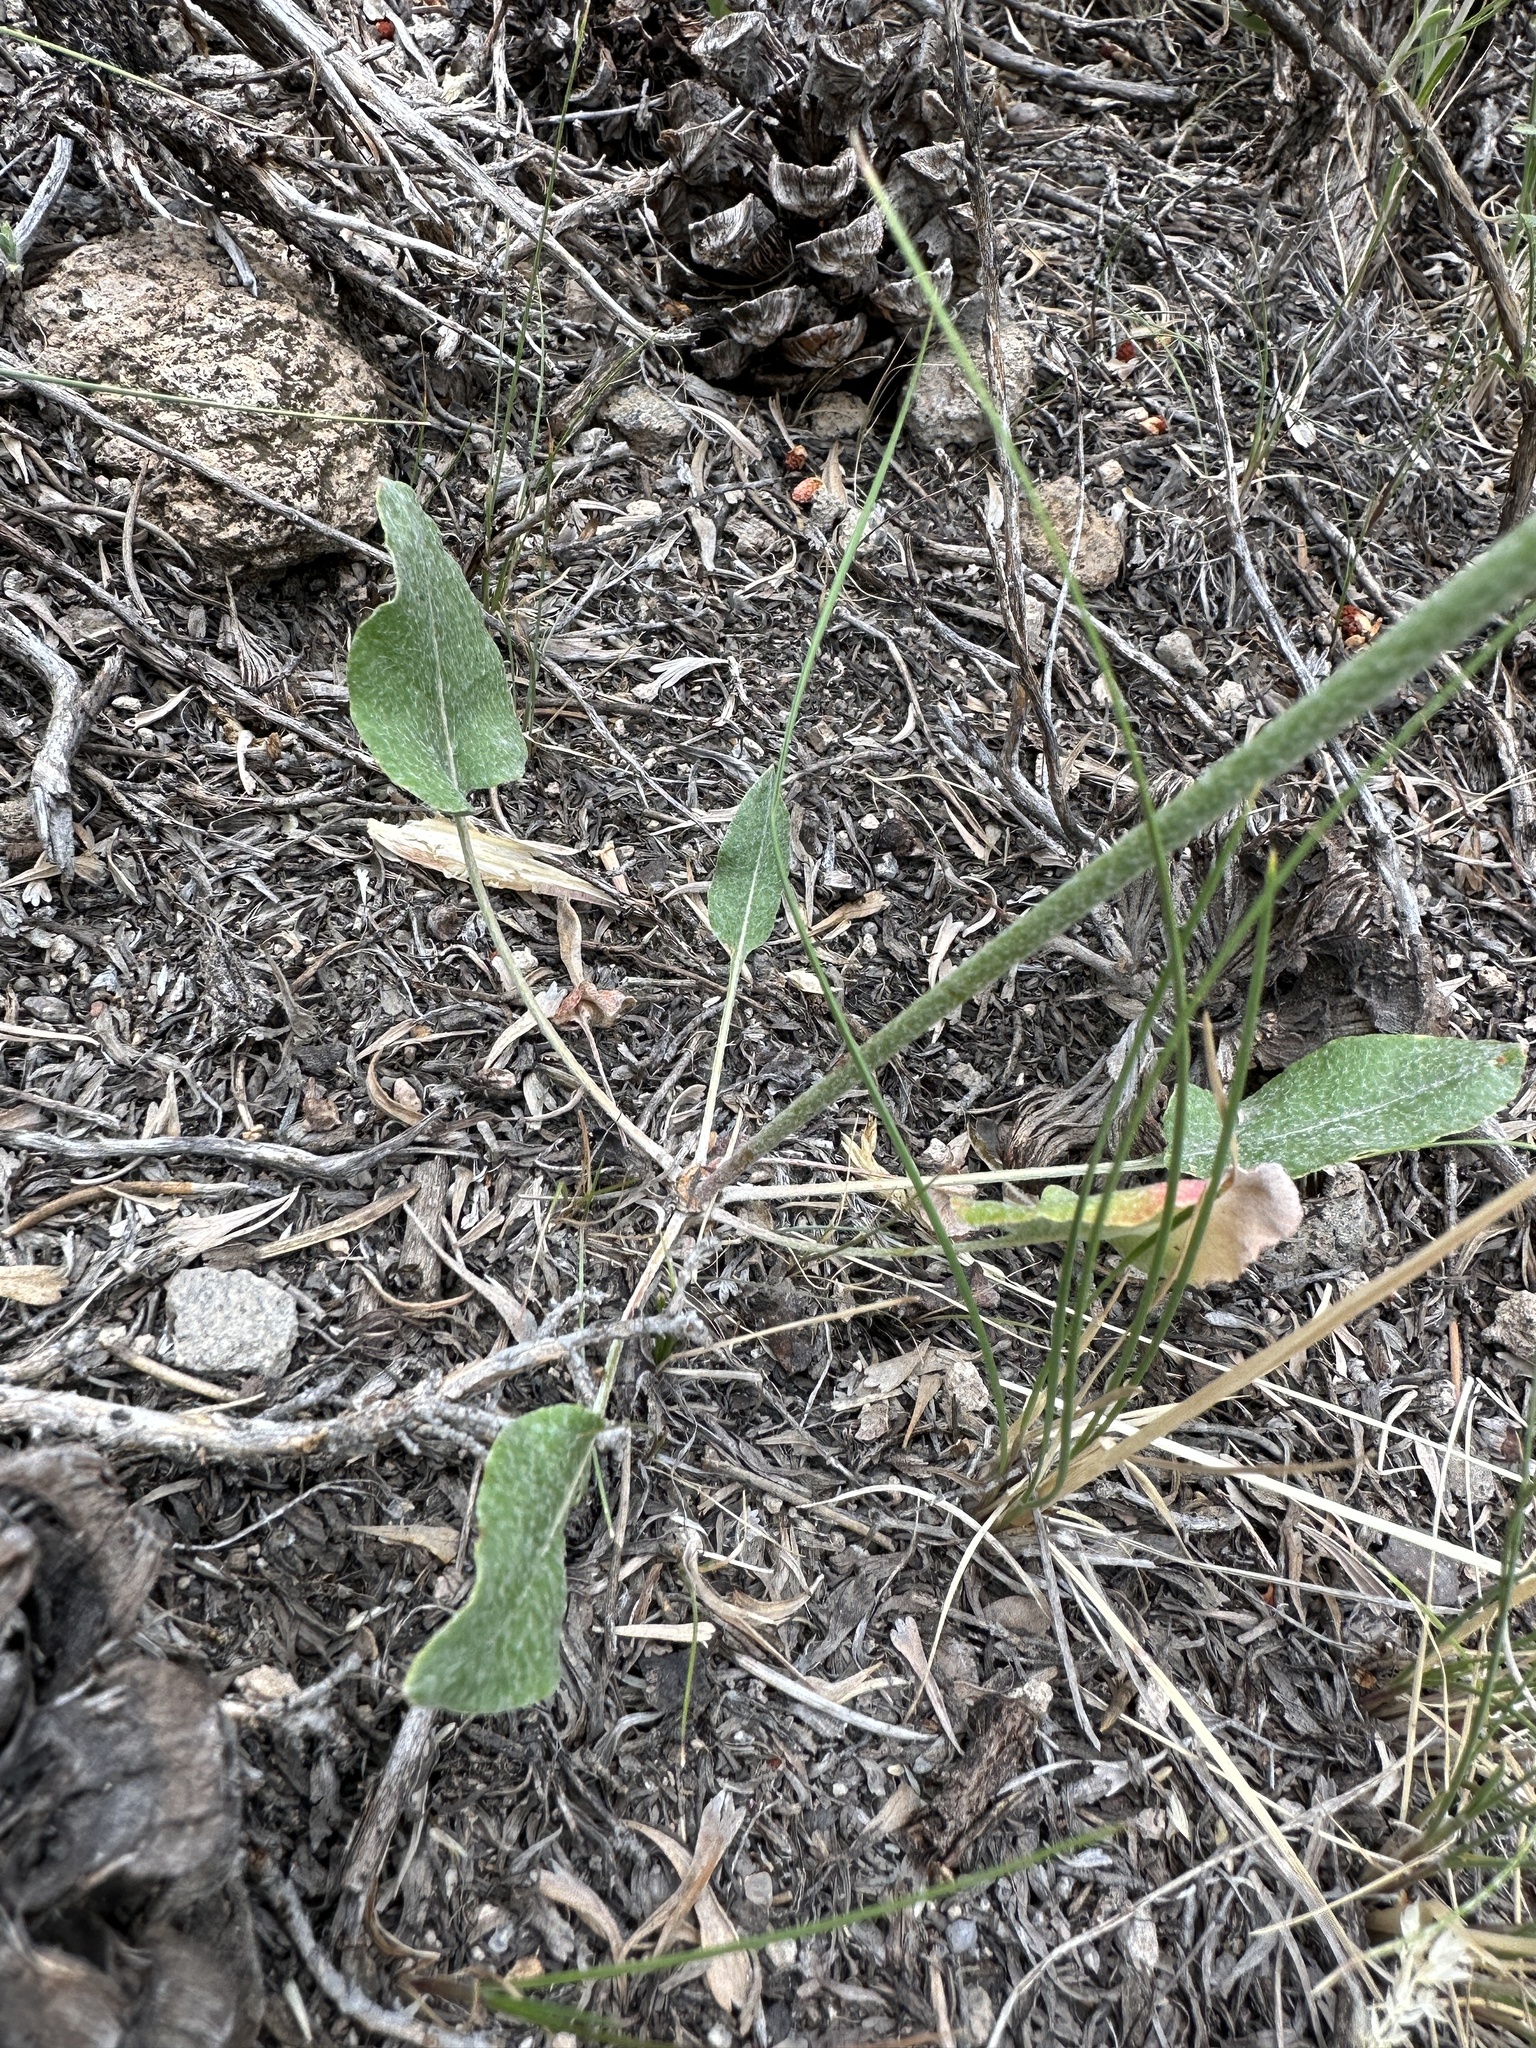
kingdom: Plantae
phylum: Tracheophyta
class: Magnoliopsida
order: Caryophyllales
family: Polygonaceae
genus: Eriogonum
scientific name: Eriogonum racemosum
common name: Redroot wild buckwheat
